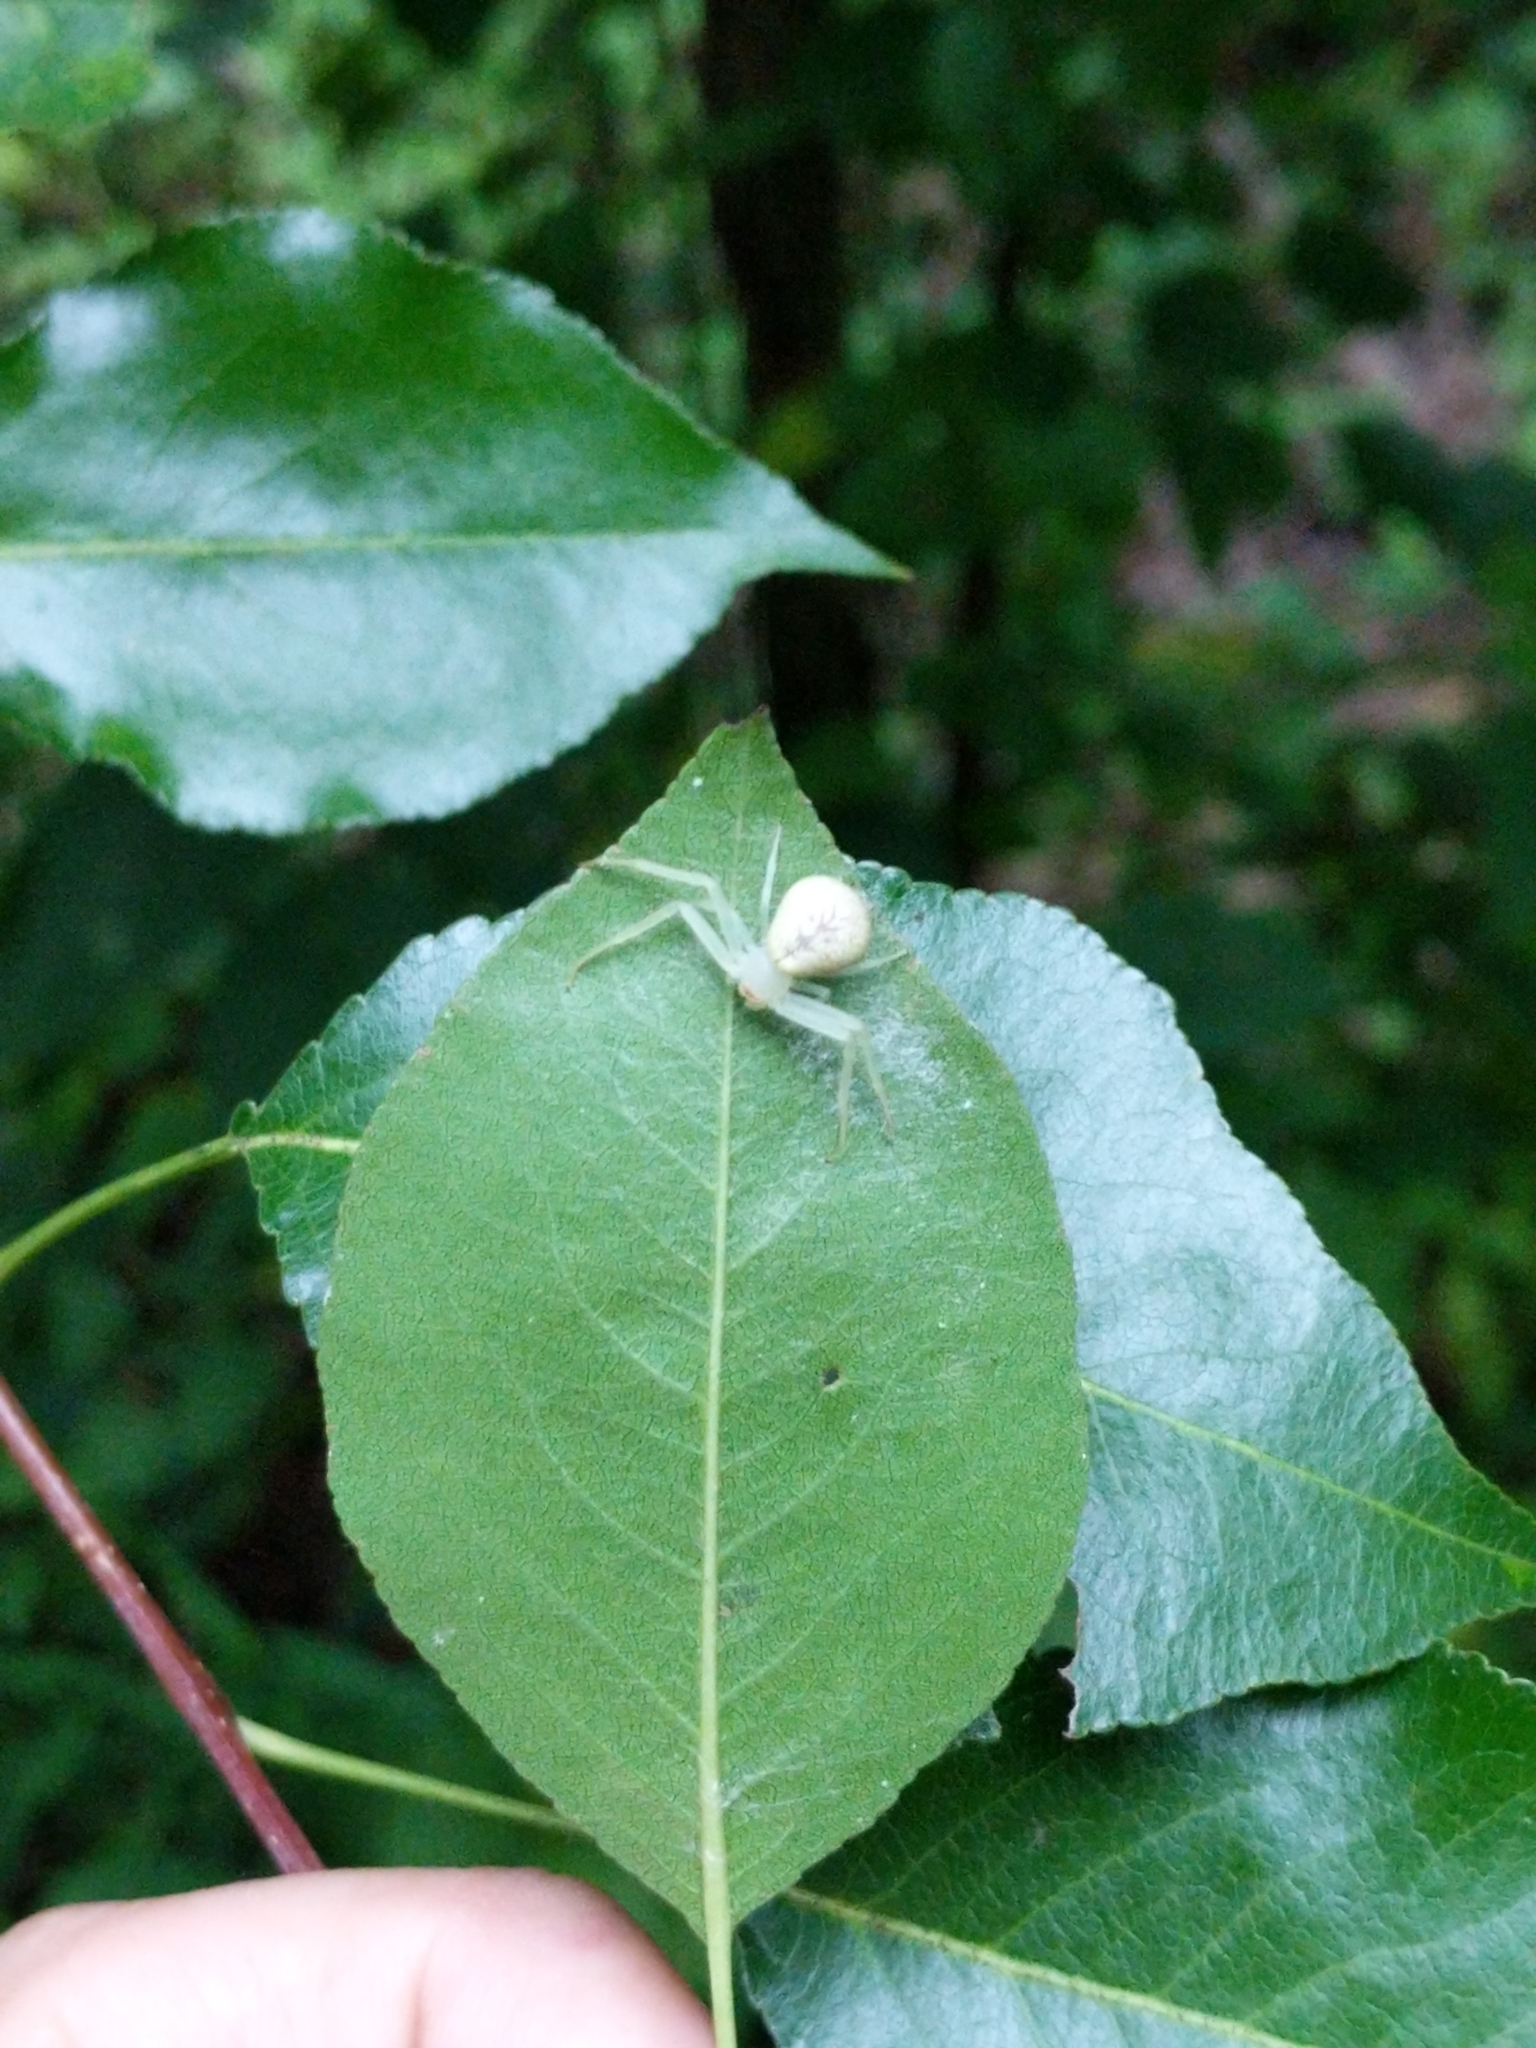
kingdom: Animalia
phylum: Arthropoda
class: Arachnida
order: Araneae
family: Thomisidae
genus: Misumessus
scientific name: Misumessus oblongus
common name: American green crab spider
